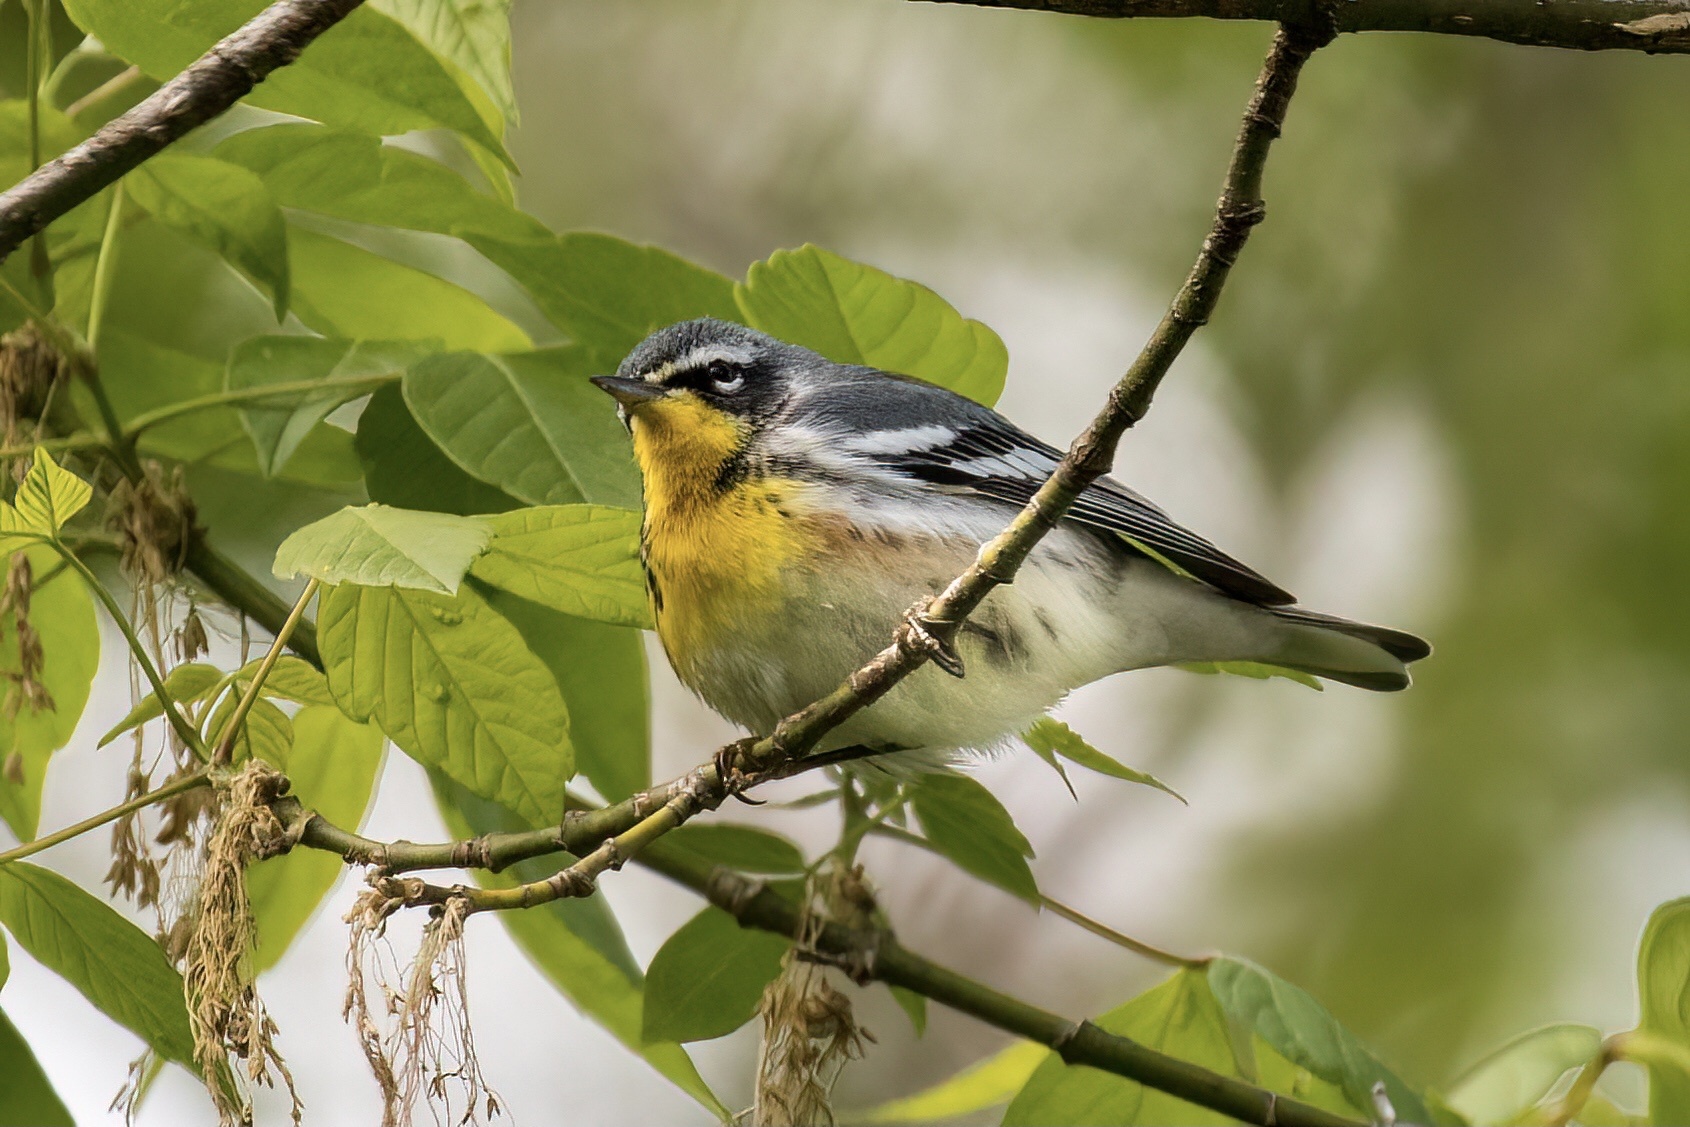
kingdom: Animalia
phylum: Chordata
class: Aves
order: Passeriformes
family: Parulidae
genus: Setophaga
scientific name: Setophaga
